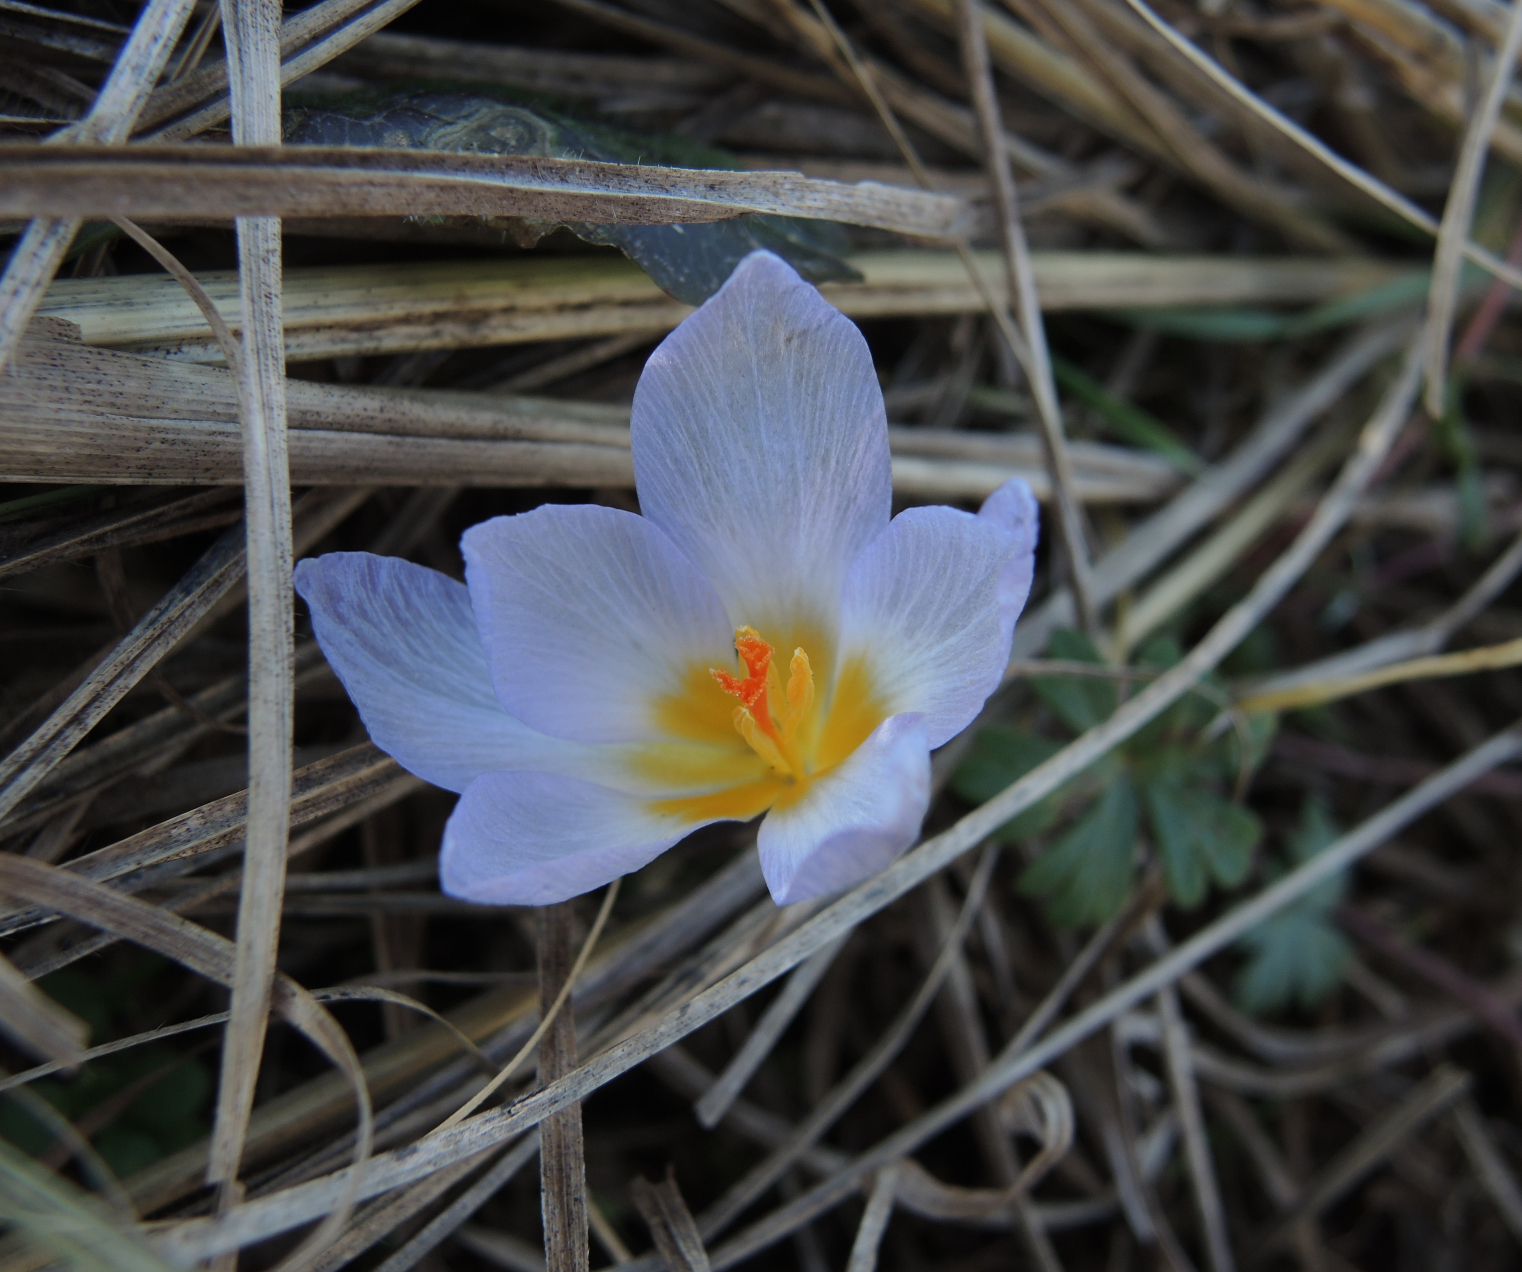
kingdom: Plantae
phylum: Tracheophyta
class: Liliopsida
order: Asparagales
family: Iridaceae
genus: Crocus
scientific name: Crocus adamioides
